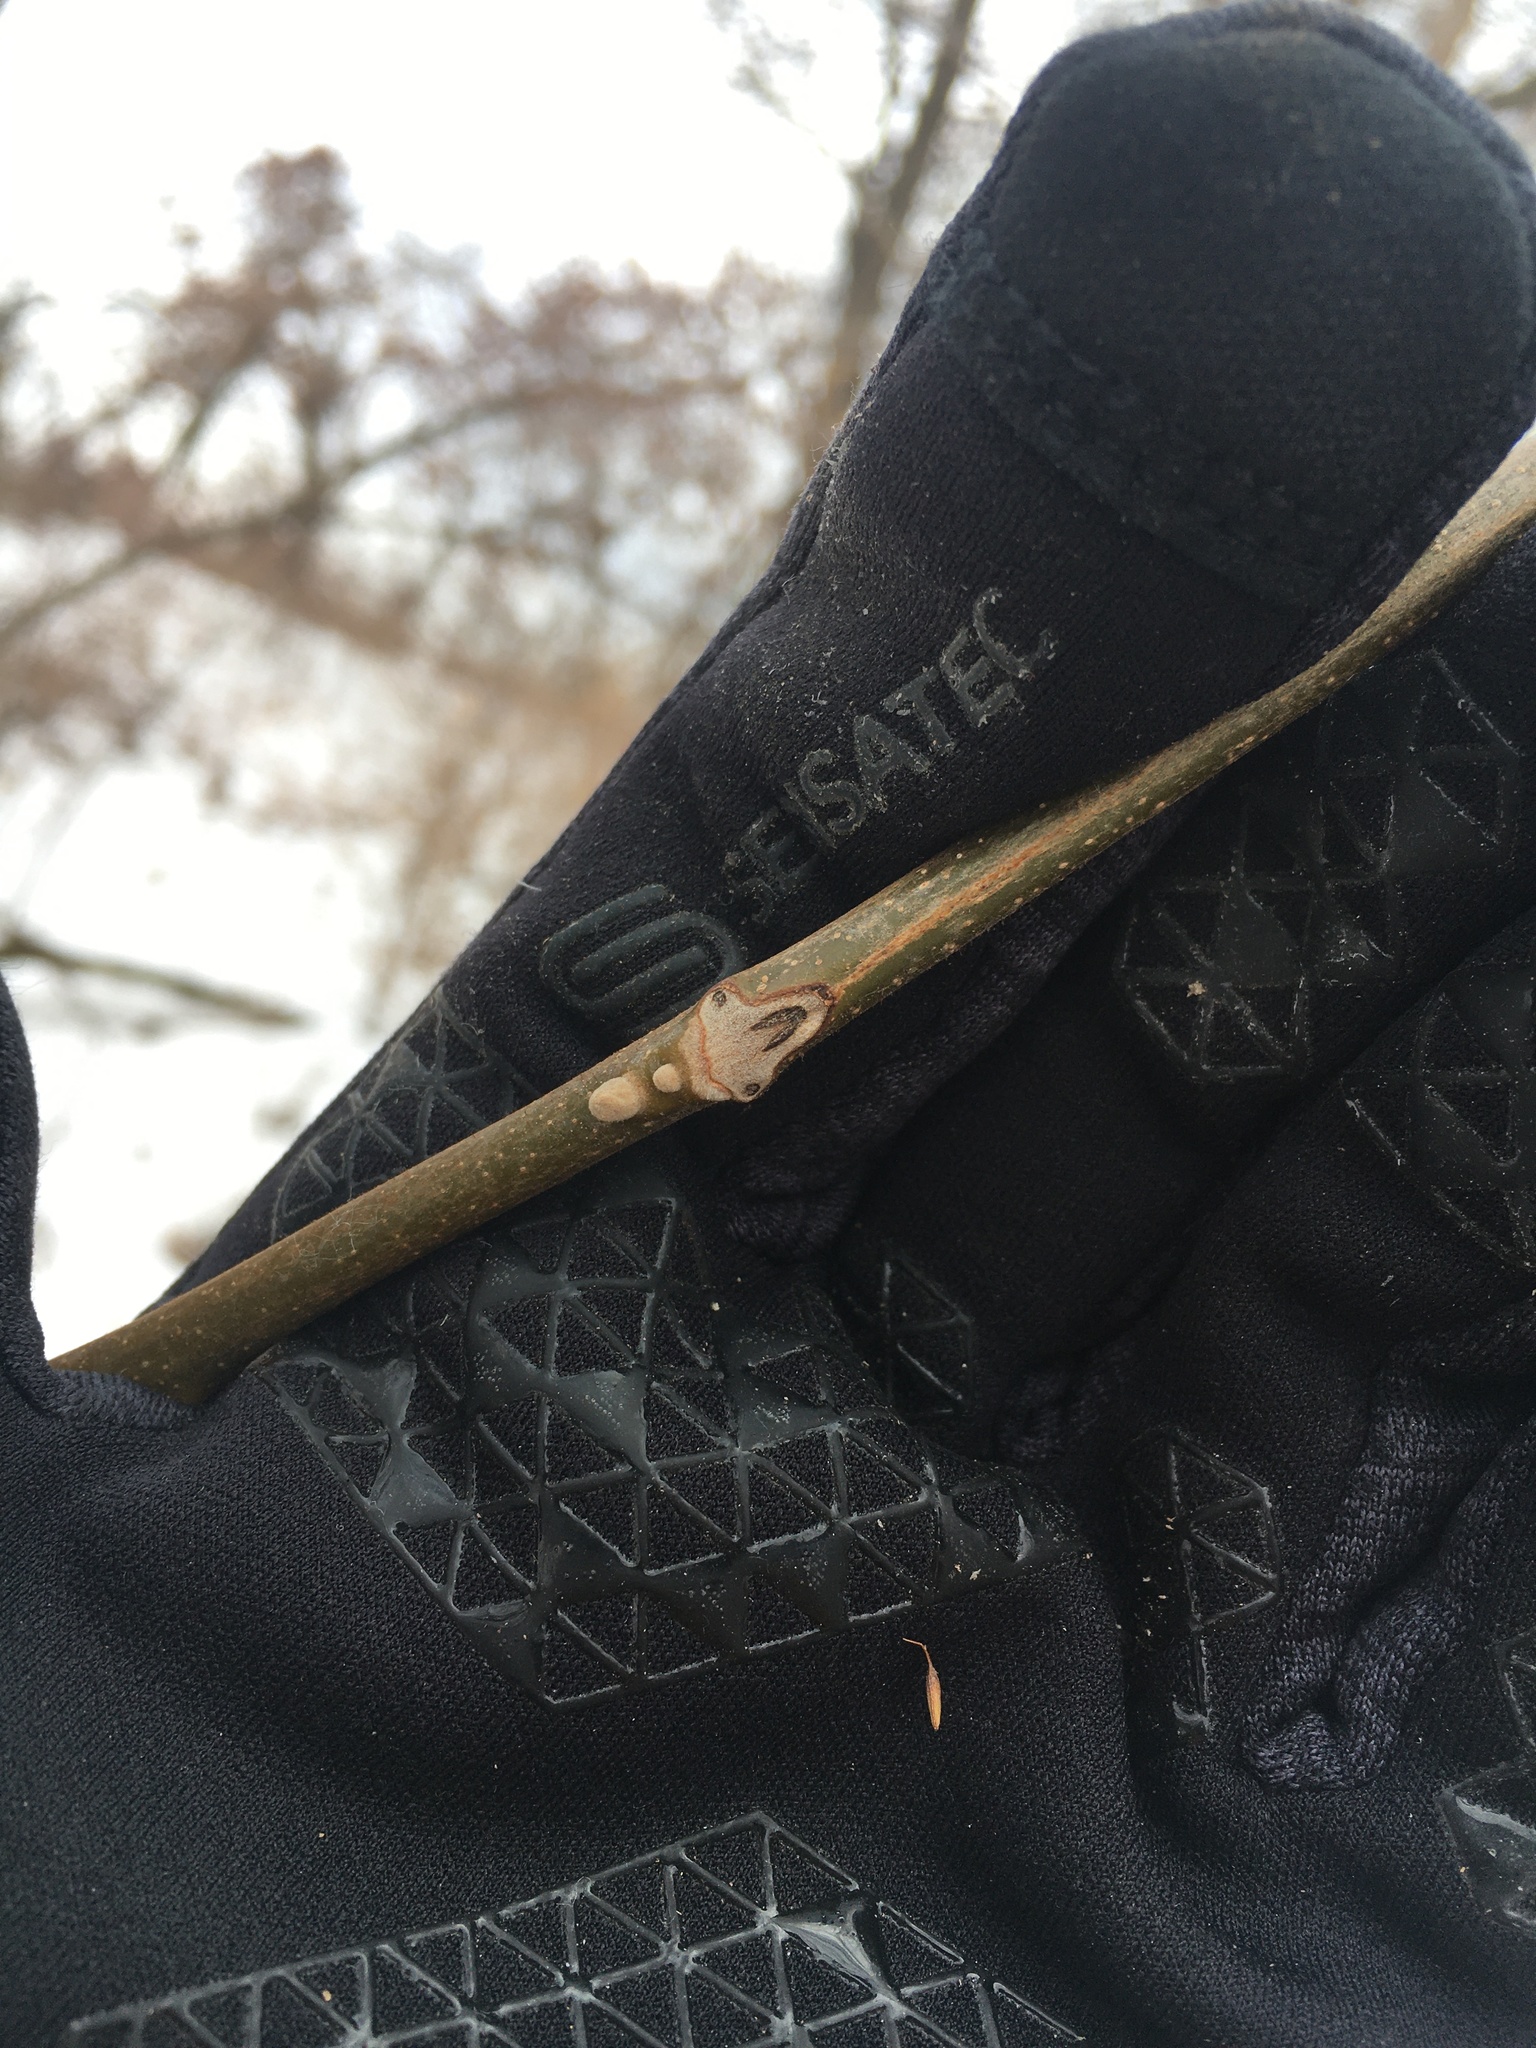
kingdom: Plantae
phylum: Tracheophyta
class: Magnoliopsida
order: Fagales
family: Juglandaceae
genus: Juglans
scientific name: Juglans cinerea
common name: Butternut
